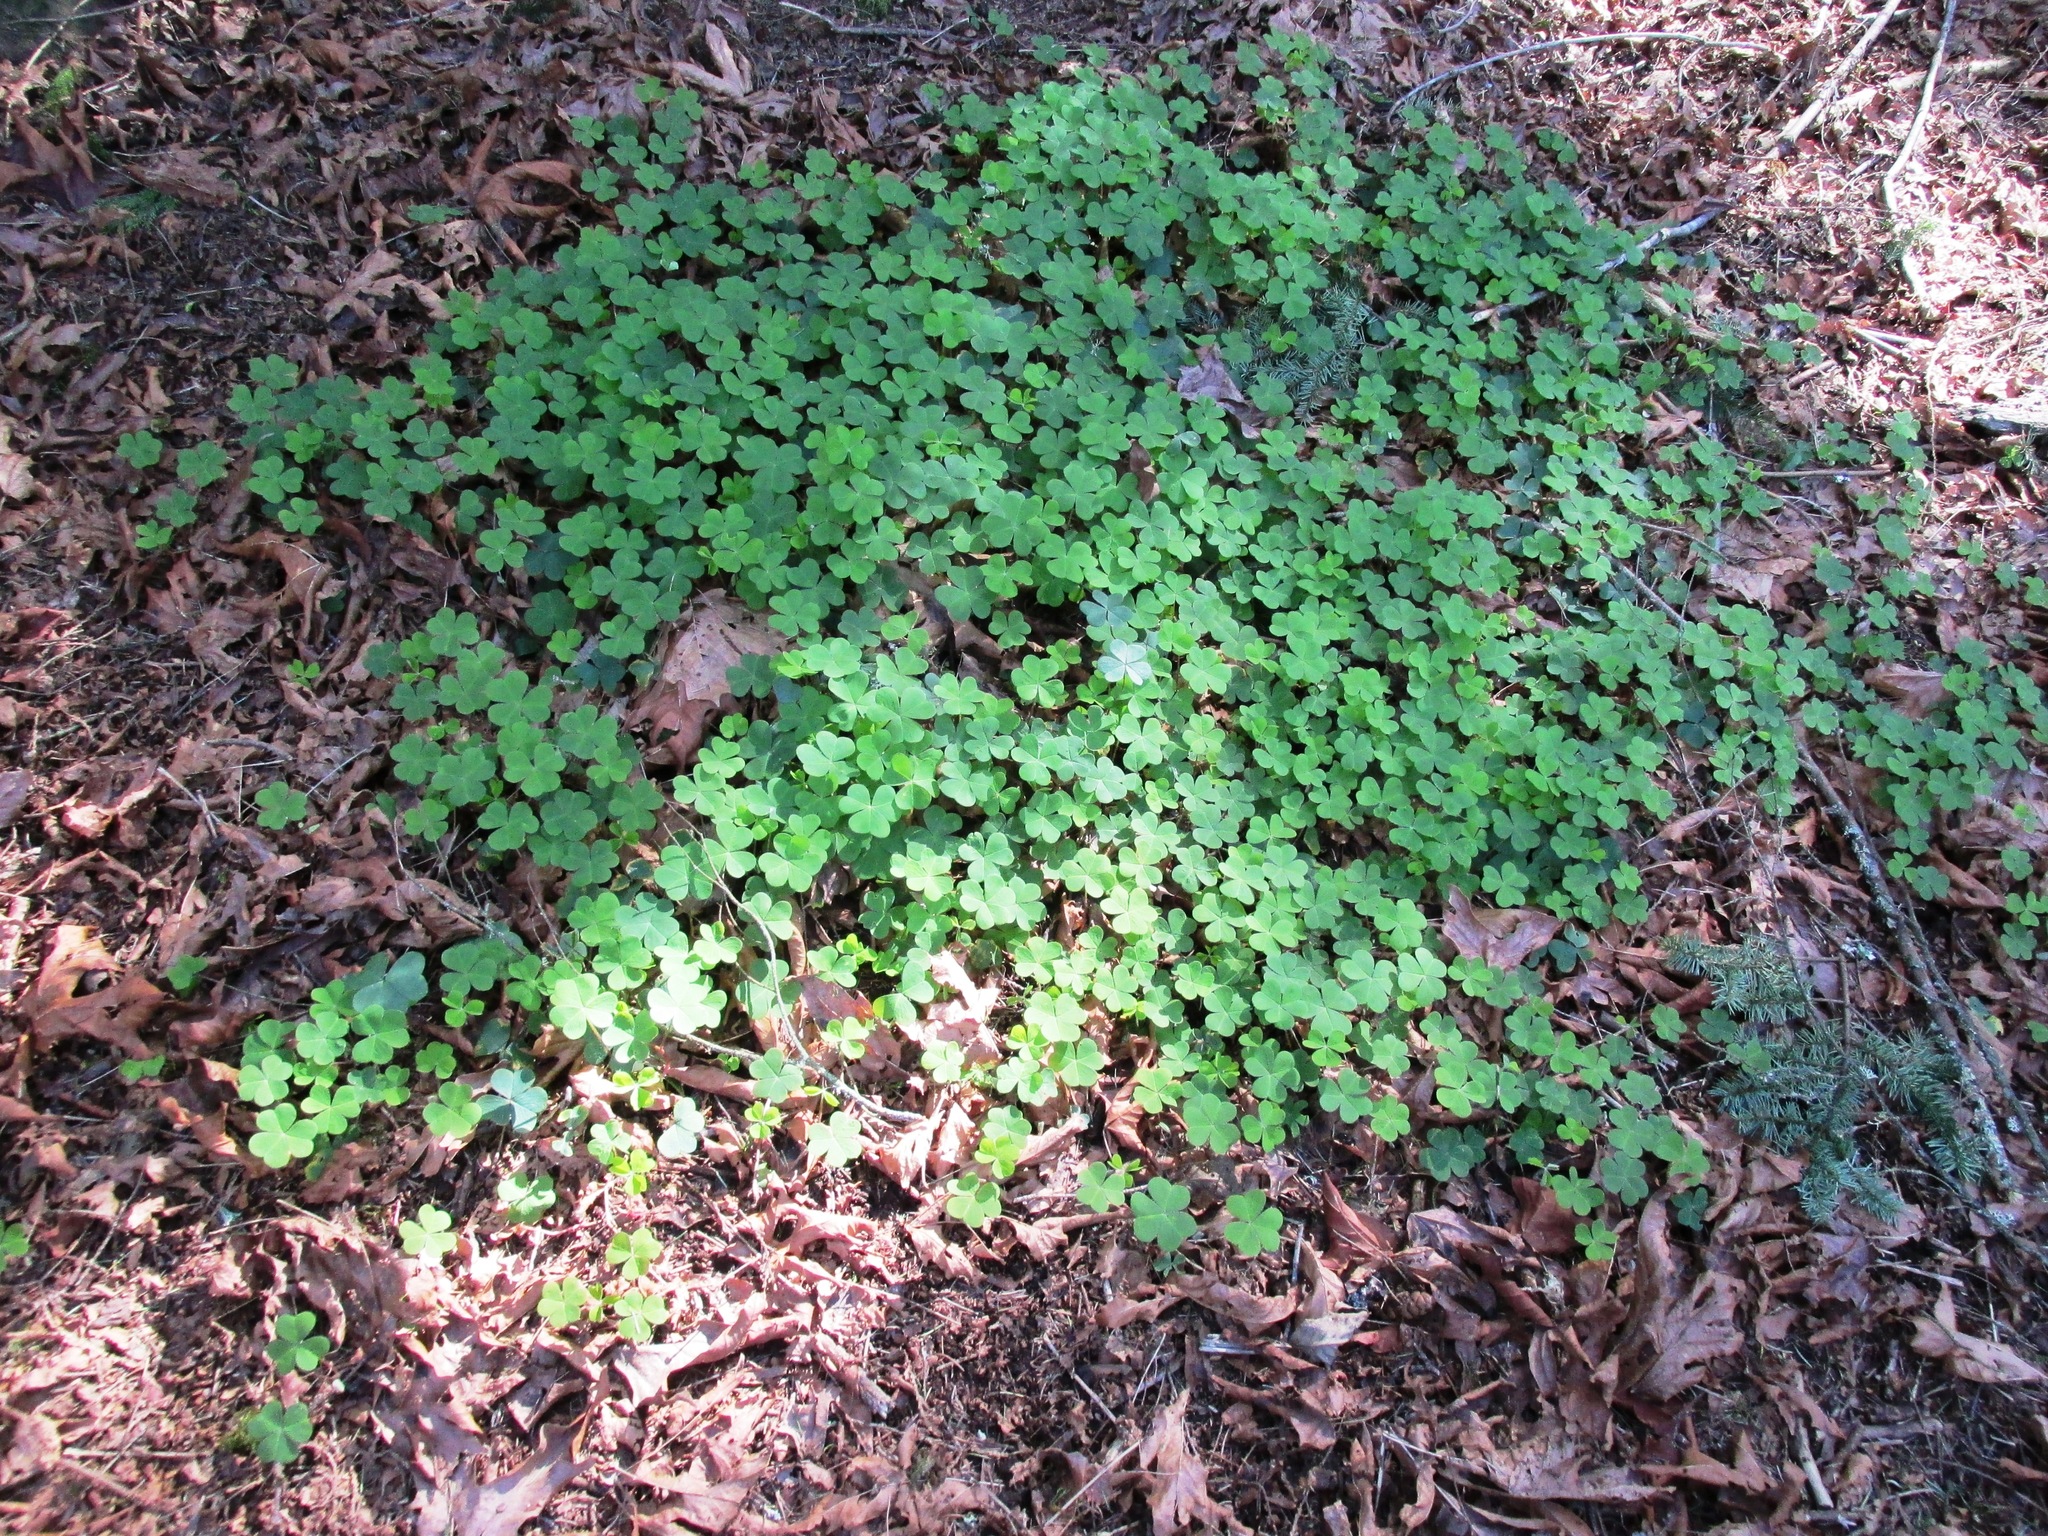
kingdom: Plantae
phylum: Tracheophyta
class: Magnoliopsida
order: Oxalidales
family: Oxalidaceae
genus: Oxalis
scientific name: Oxalis oregana
